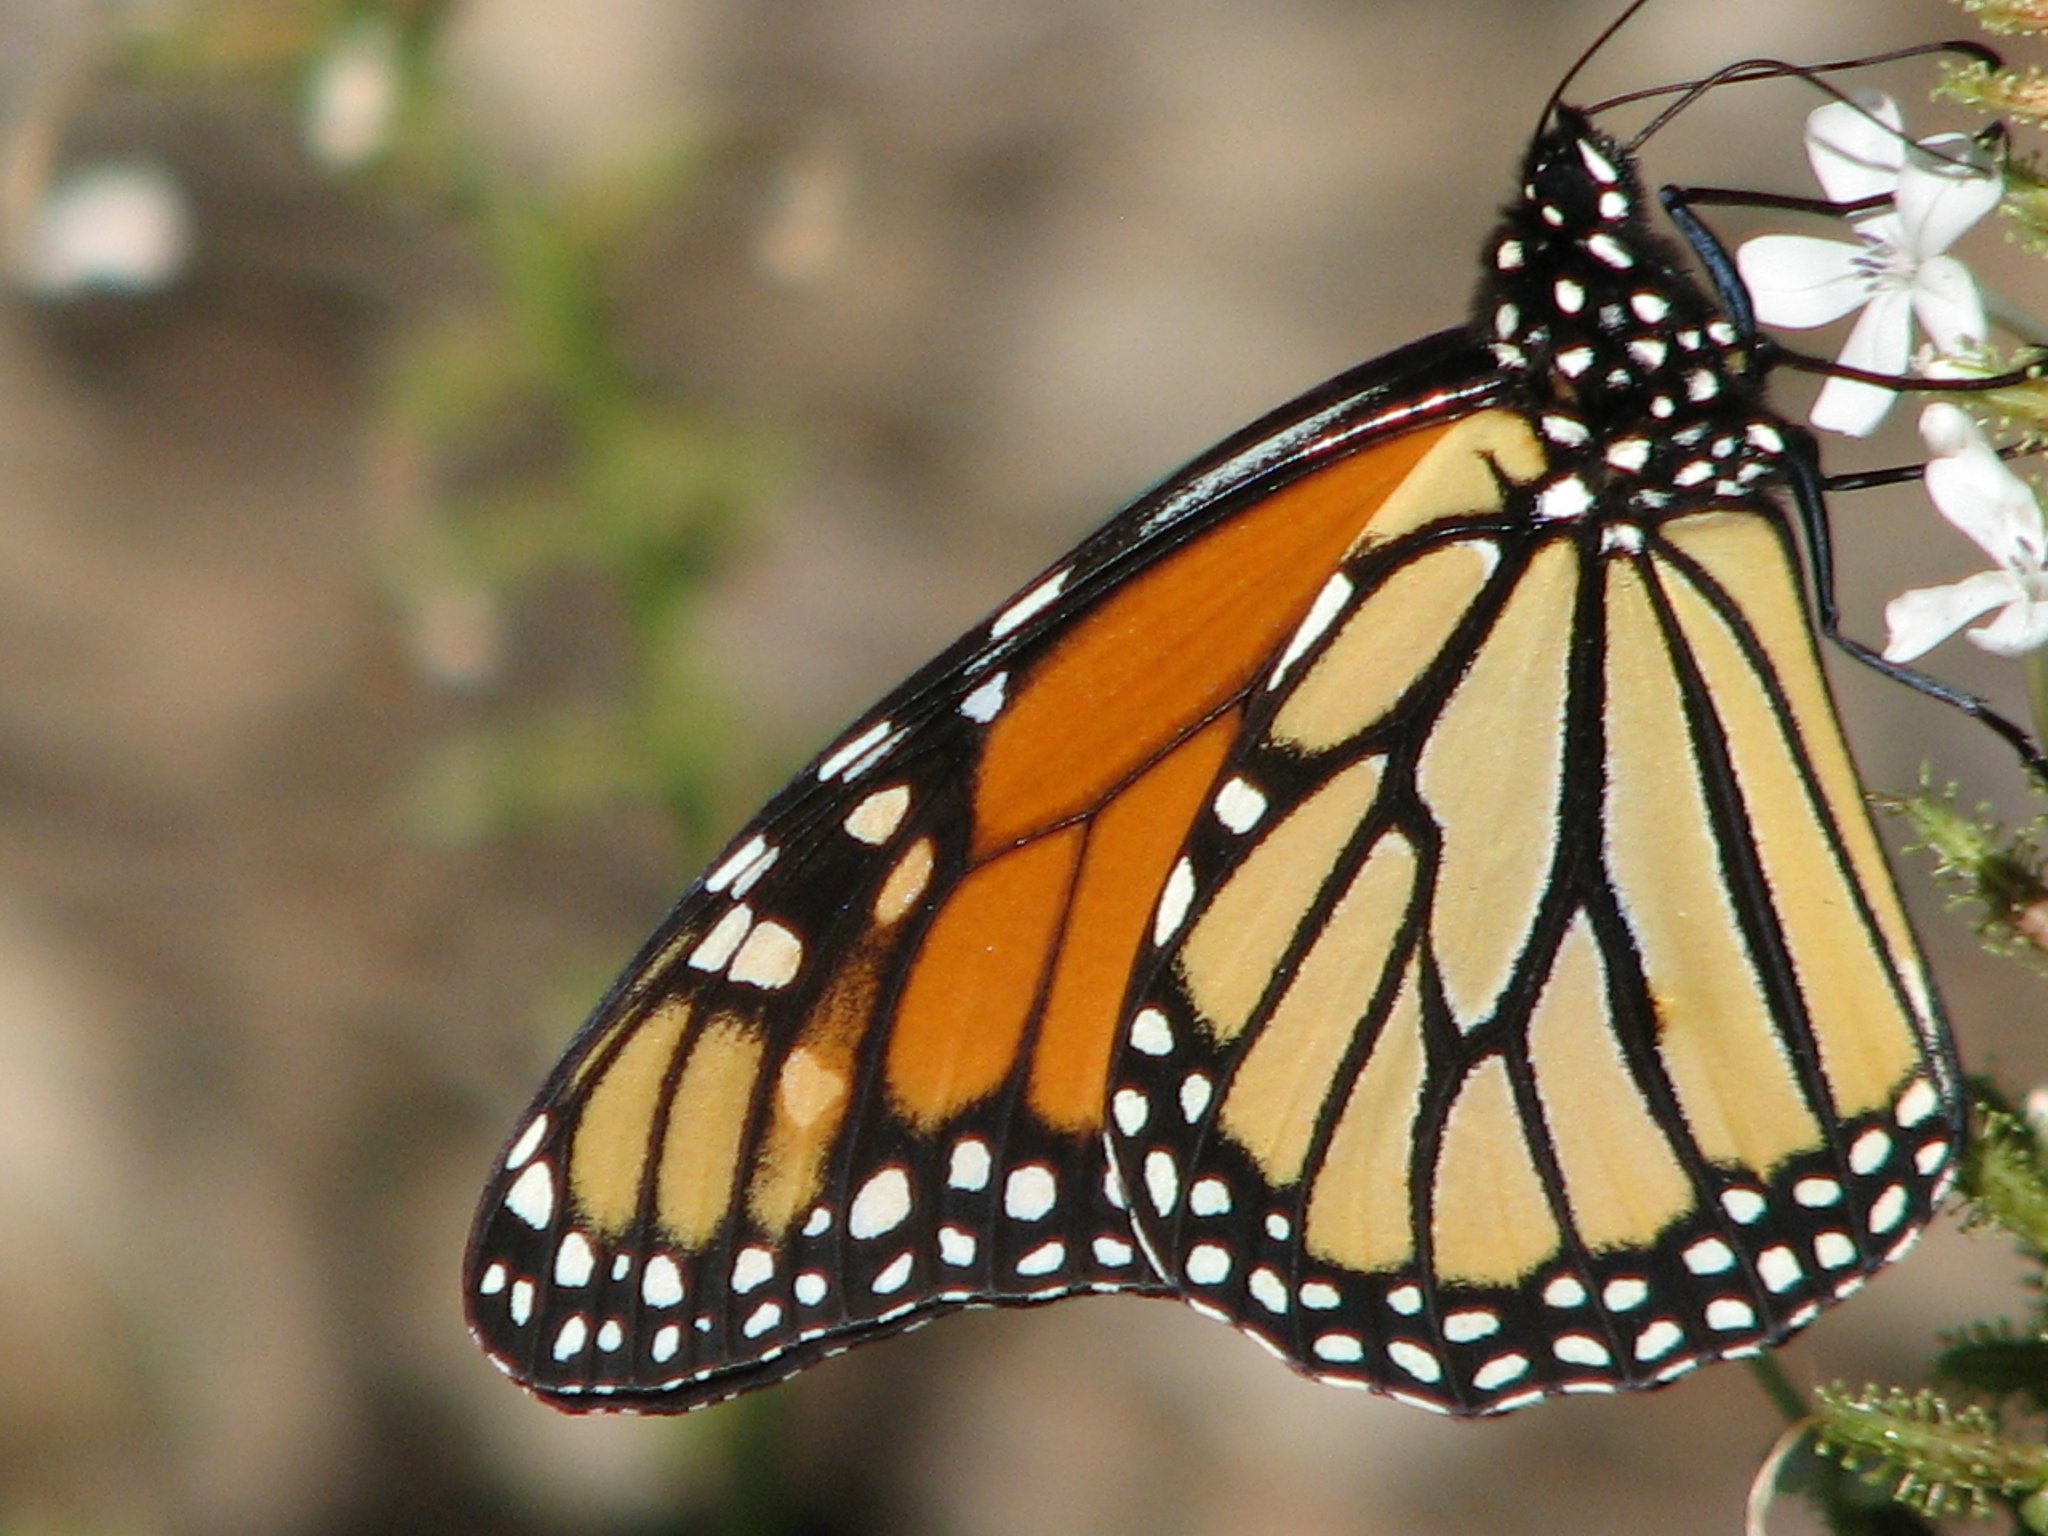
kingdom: Animalia
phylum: Arthropoda
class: Insecta
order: Lepidoptera
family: Nymphalidae
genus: Danaus
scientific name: Danaus plexippus
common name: Monarch
